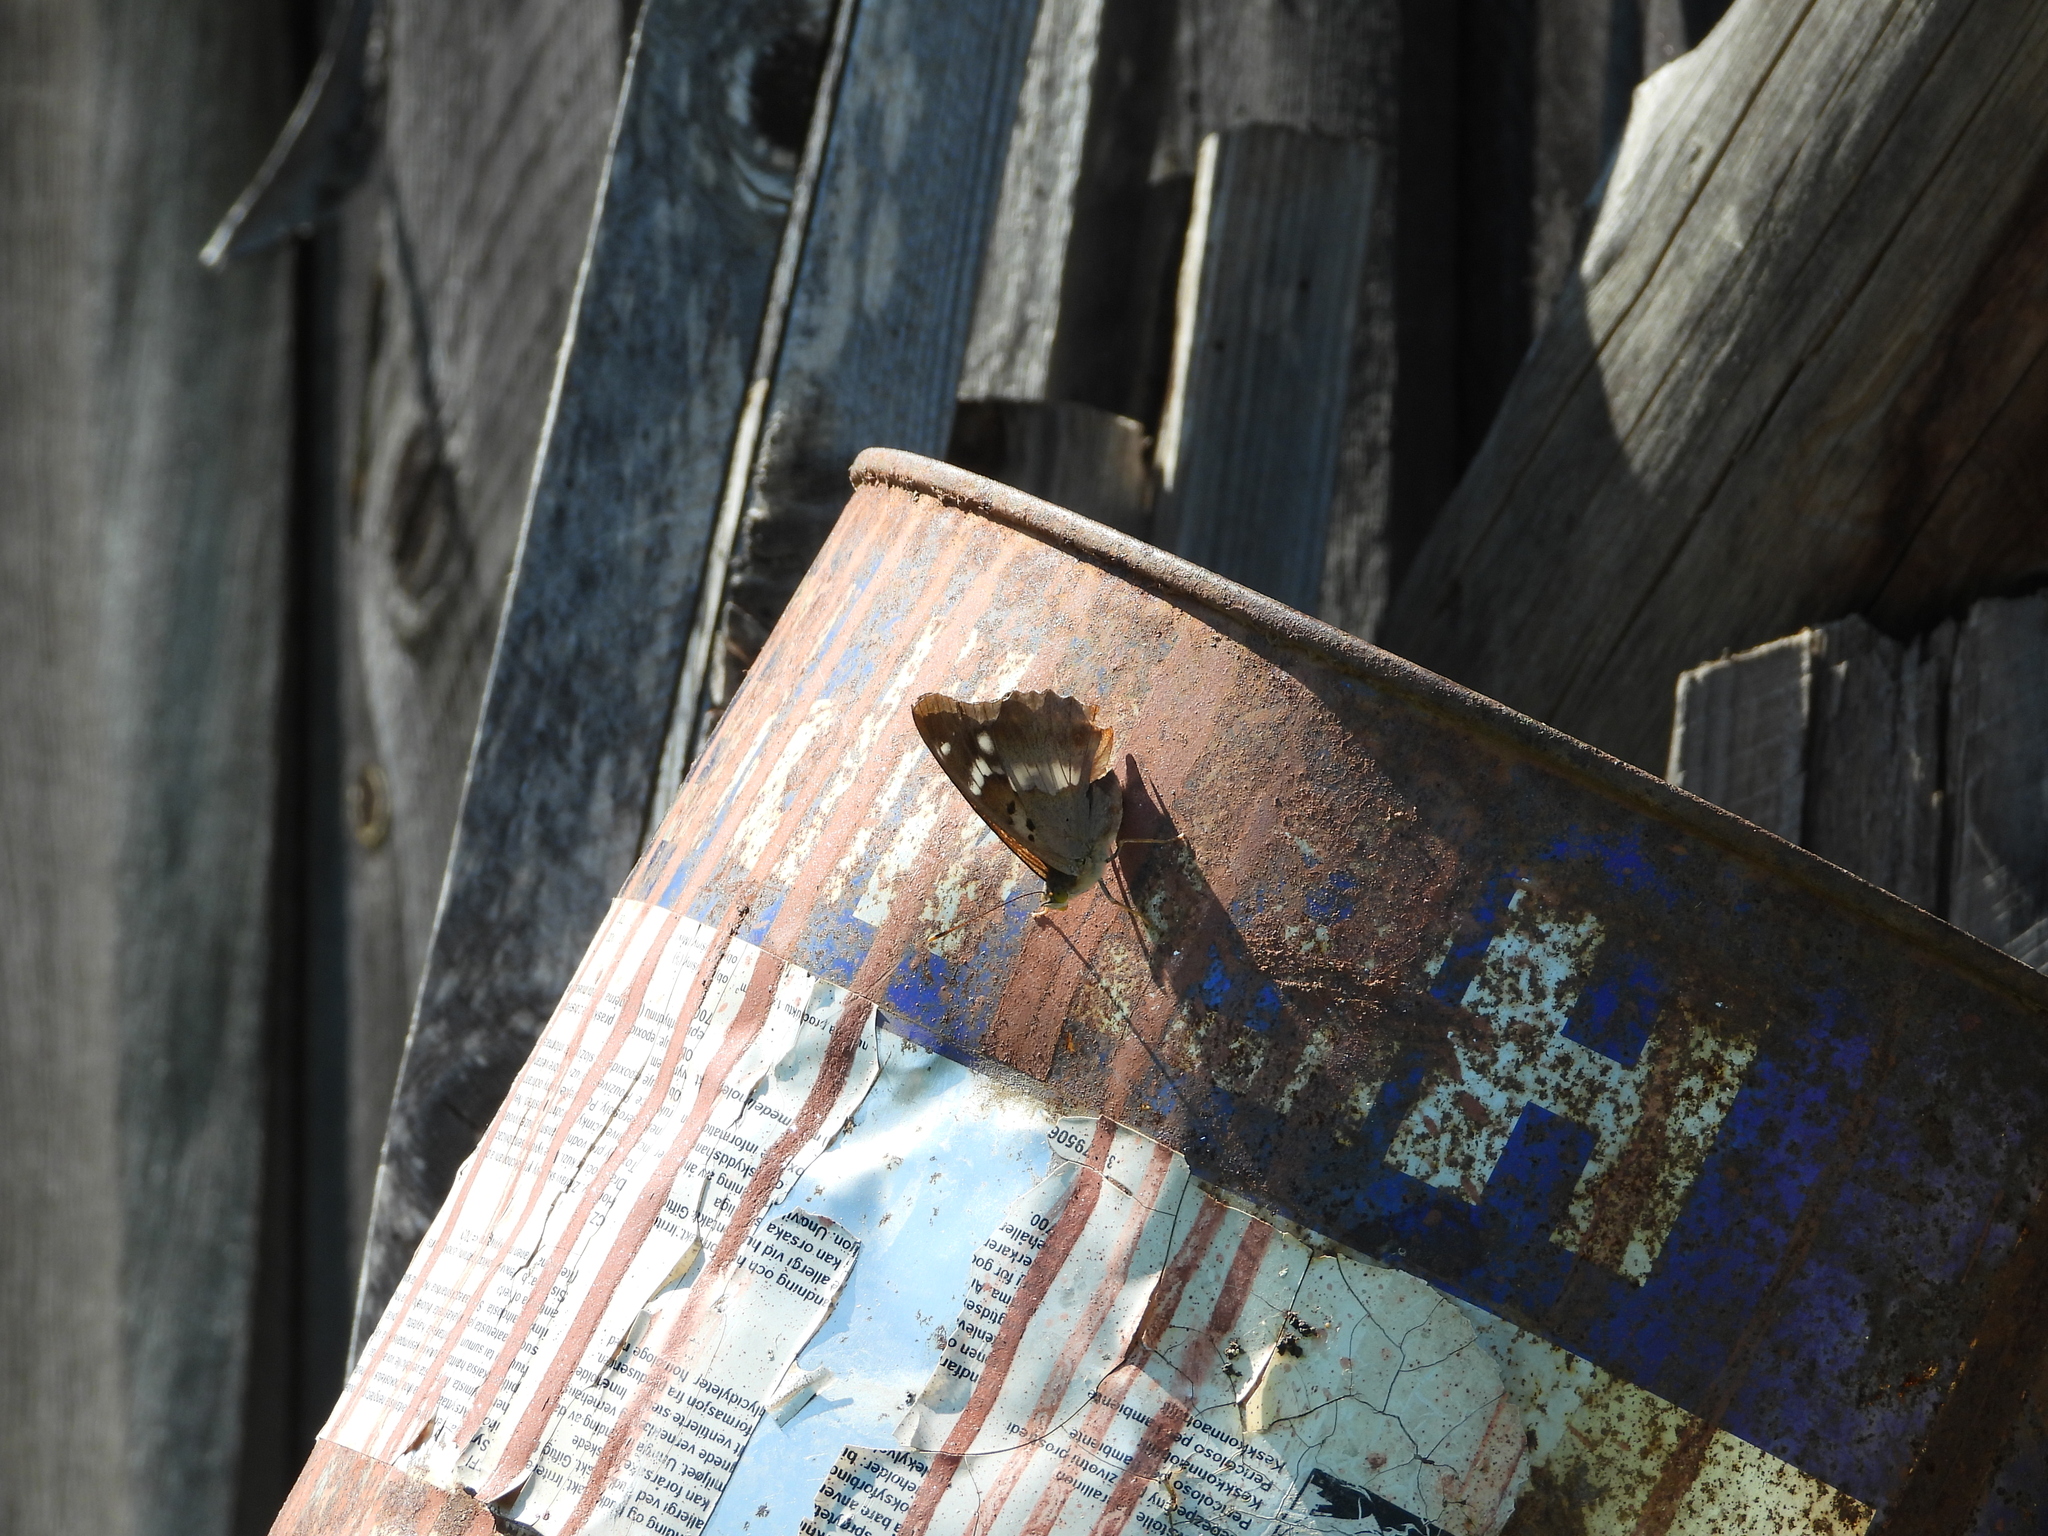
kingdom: Animalia
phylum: Arthropoda
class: Insecta
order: Lepidoptera
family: Nymphalidae
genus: Apatura
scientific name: Apatura ilia
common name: Lesser purple emperor
